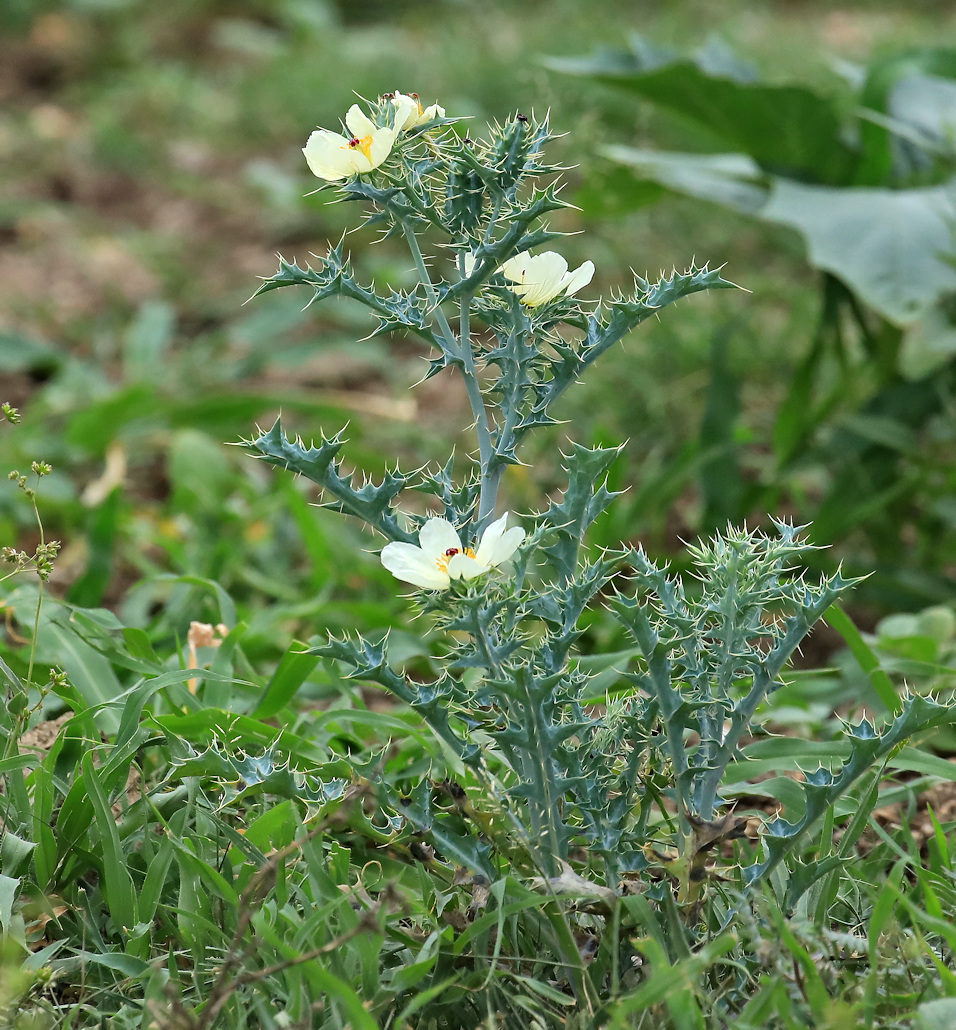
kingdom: Plantae
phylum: Tracheophyta
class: Magnoliopsida
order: Ranunculales
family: Papaveraceae
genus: Argemone
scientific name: Argemone ochroleuca
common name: White-flower mexican-poppy
